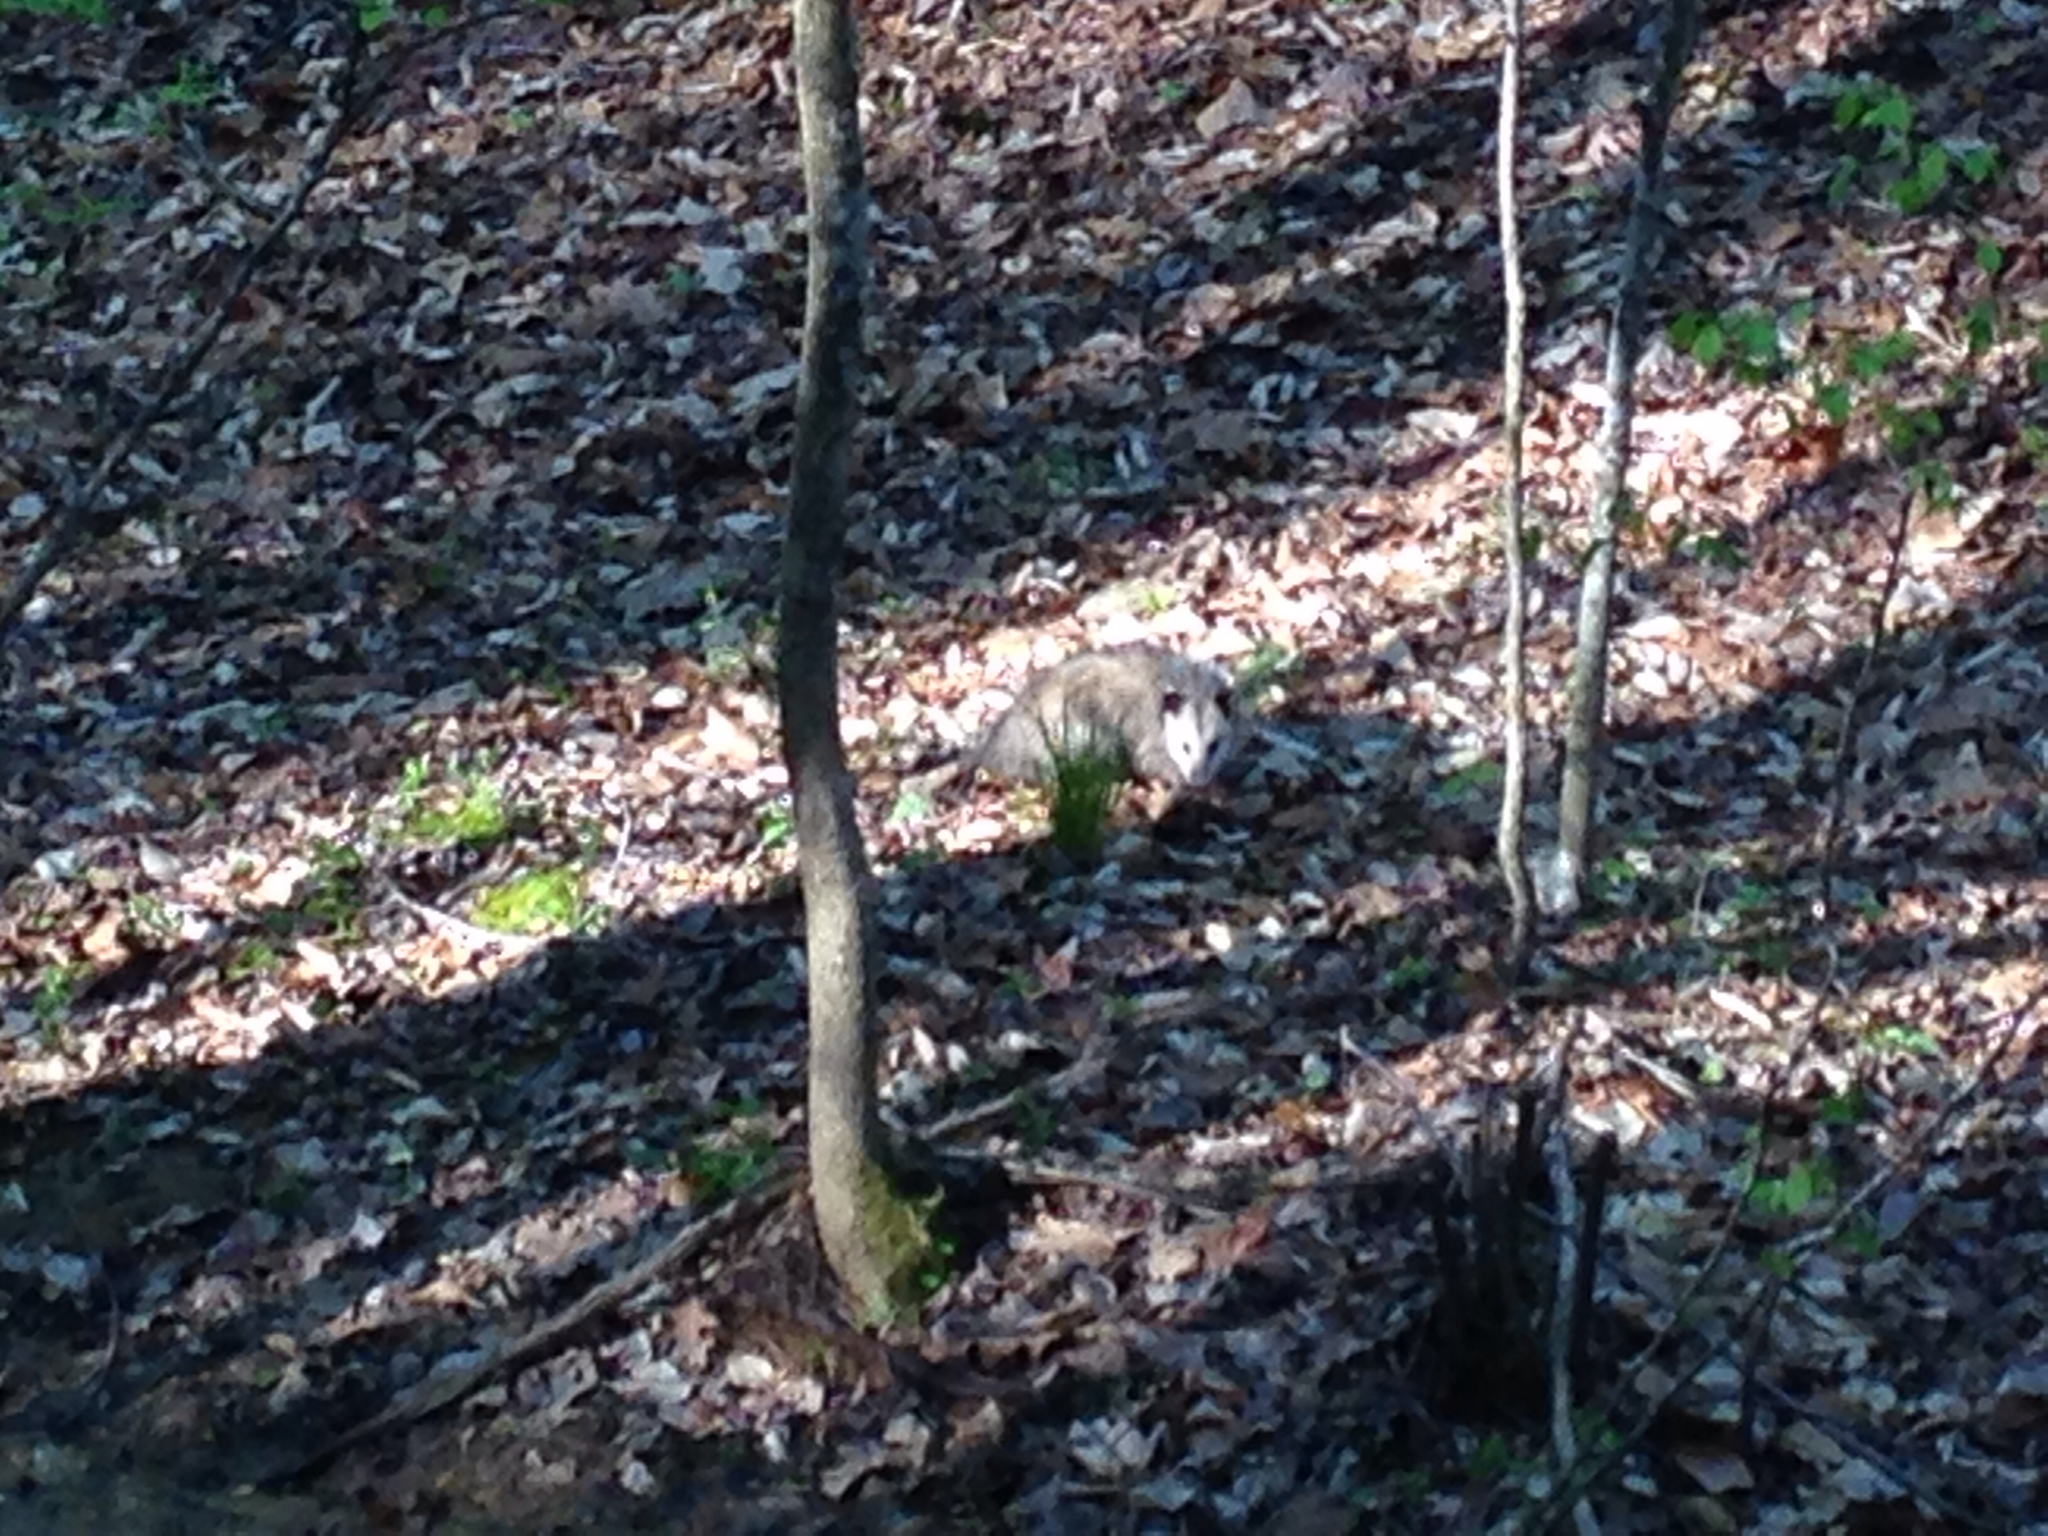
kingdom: Animalia
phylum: Chordata
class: Mammalia
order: Didelphimorphia
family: Didelphidae
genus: Didelphis
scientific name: Didelphis virginiana
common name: Virginia opossum
